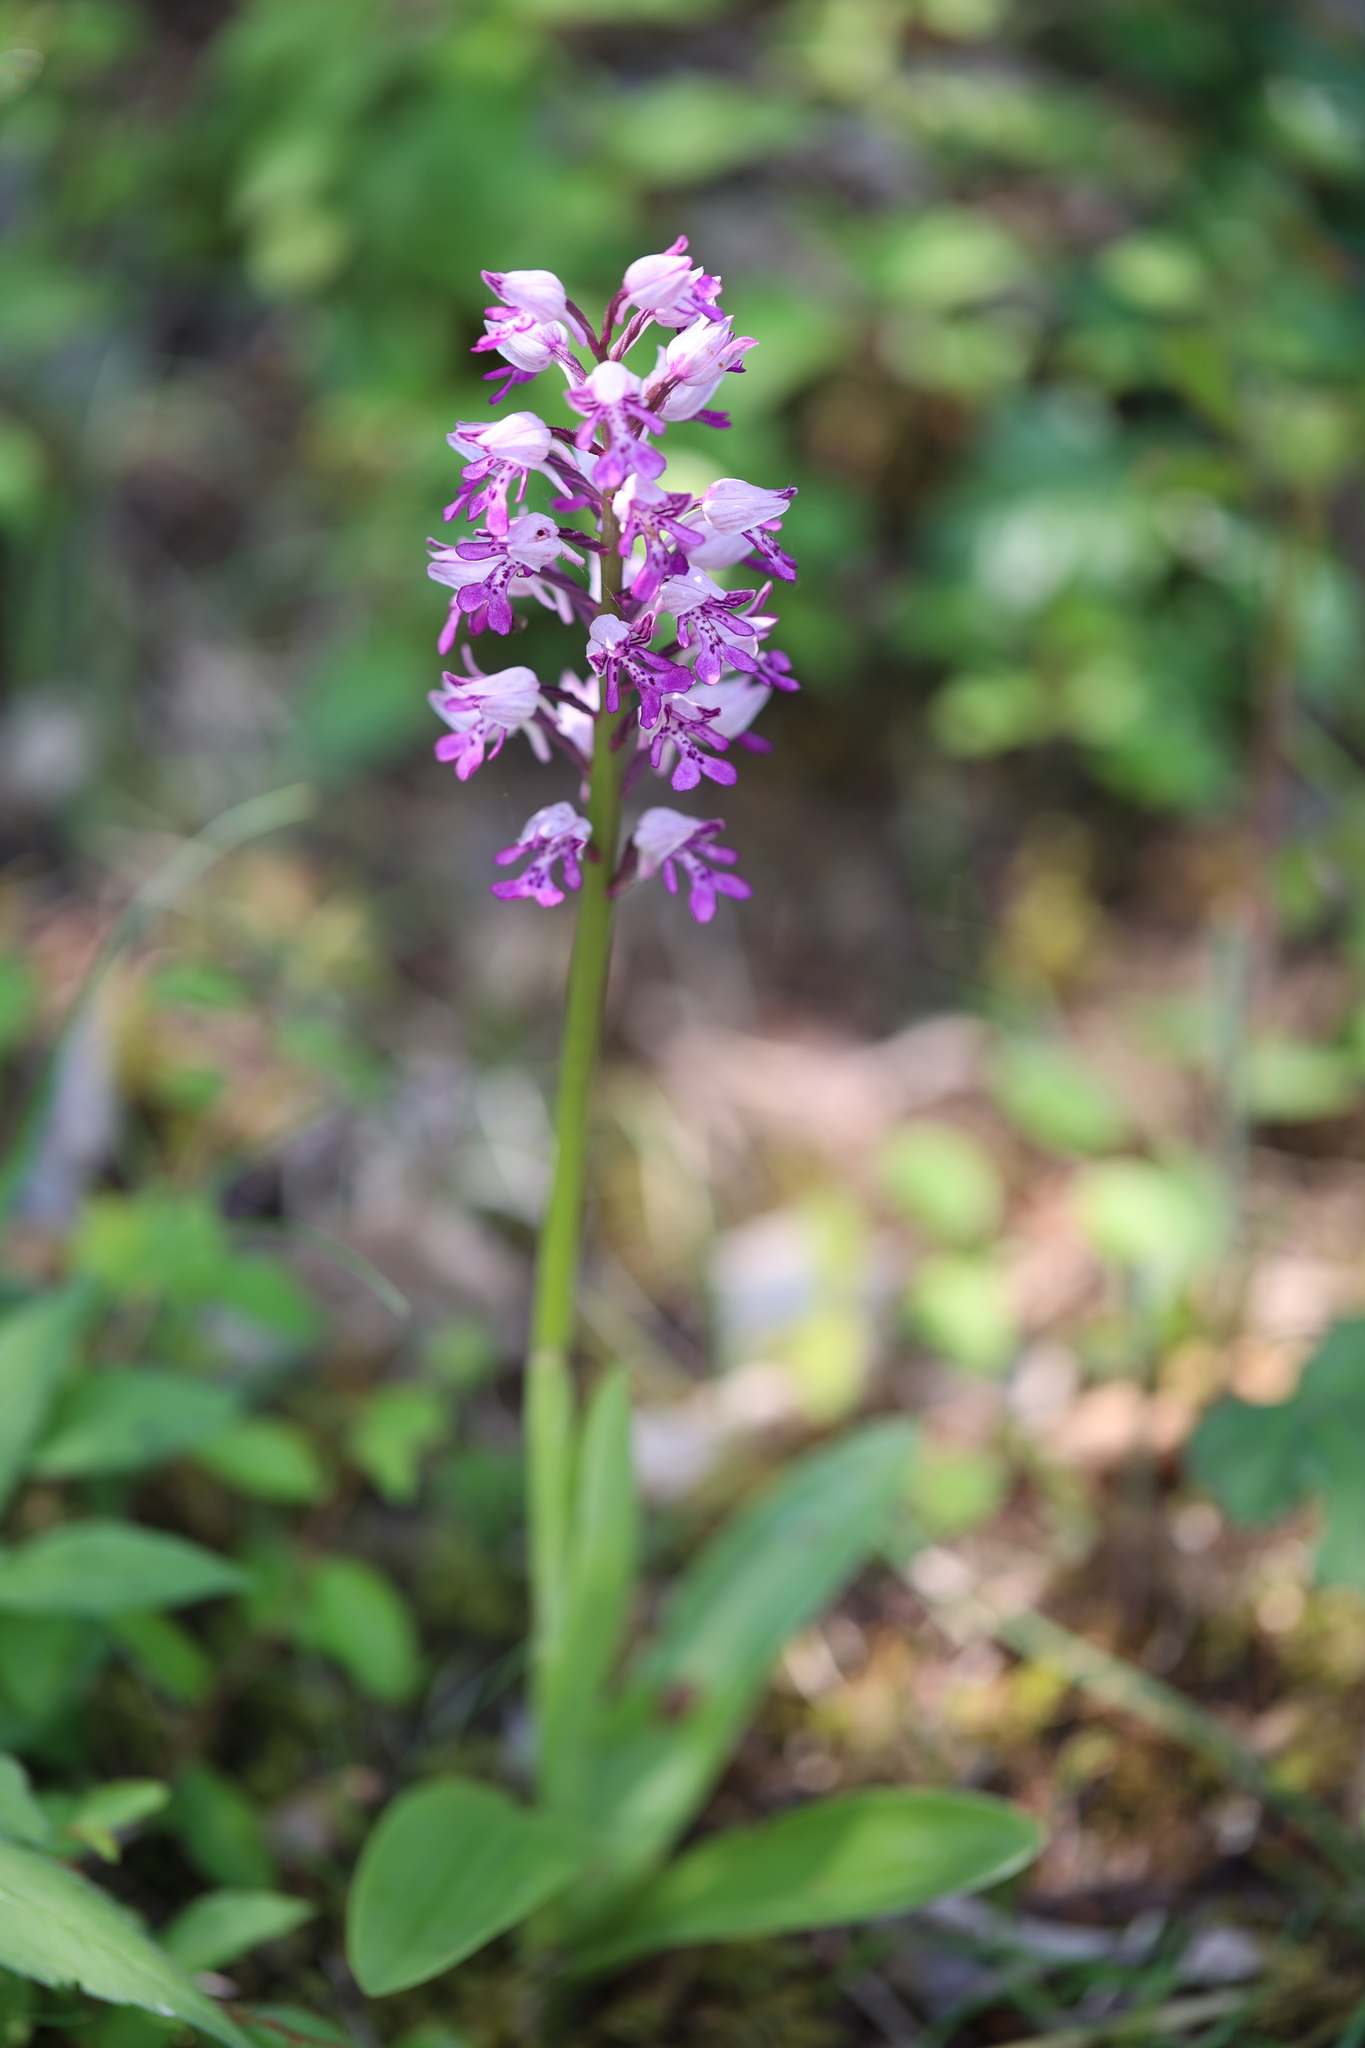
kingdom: Plantae
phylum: Tracheophyta
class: Liliopsida
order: Asparagales
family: Orchidaceae
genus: Orchis
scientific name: Orchis militaris
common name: Military orchid
